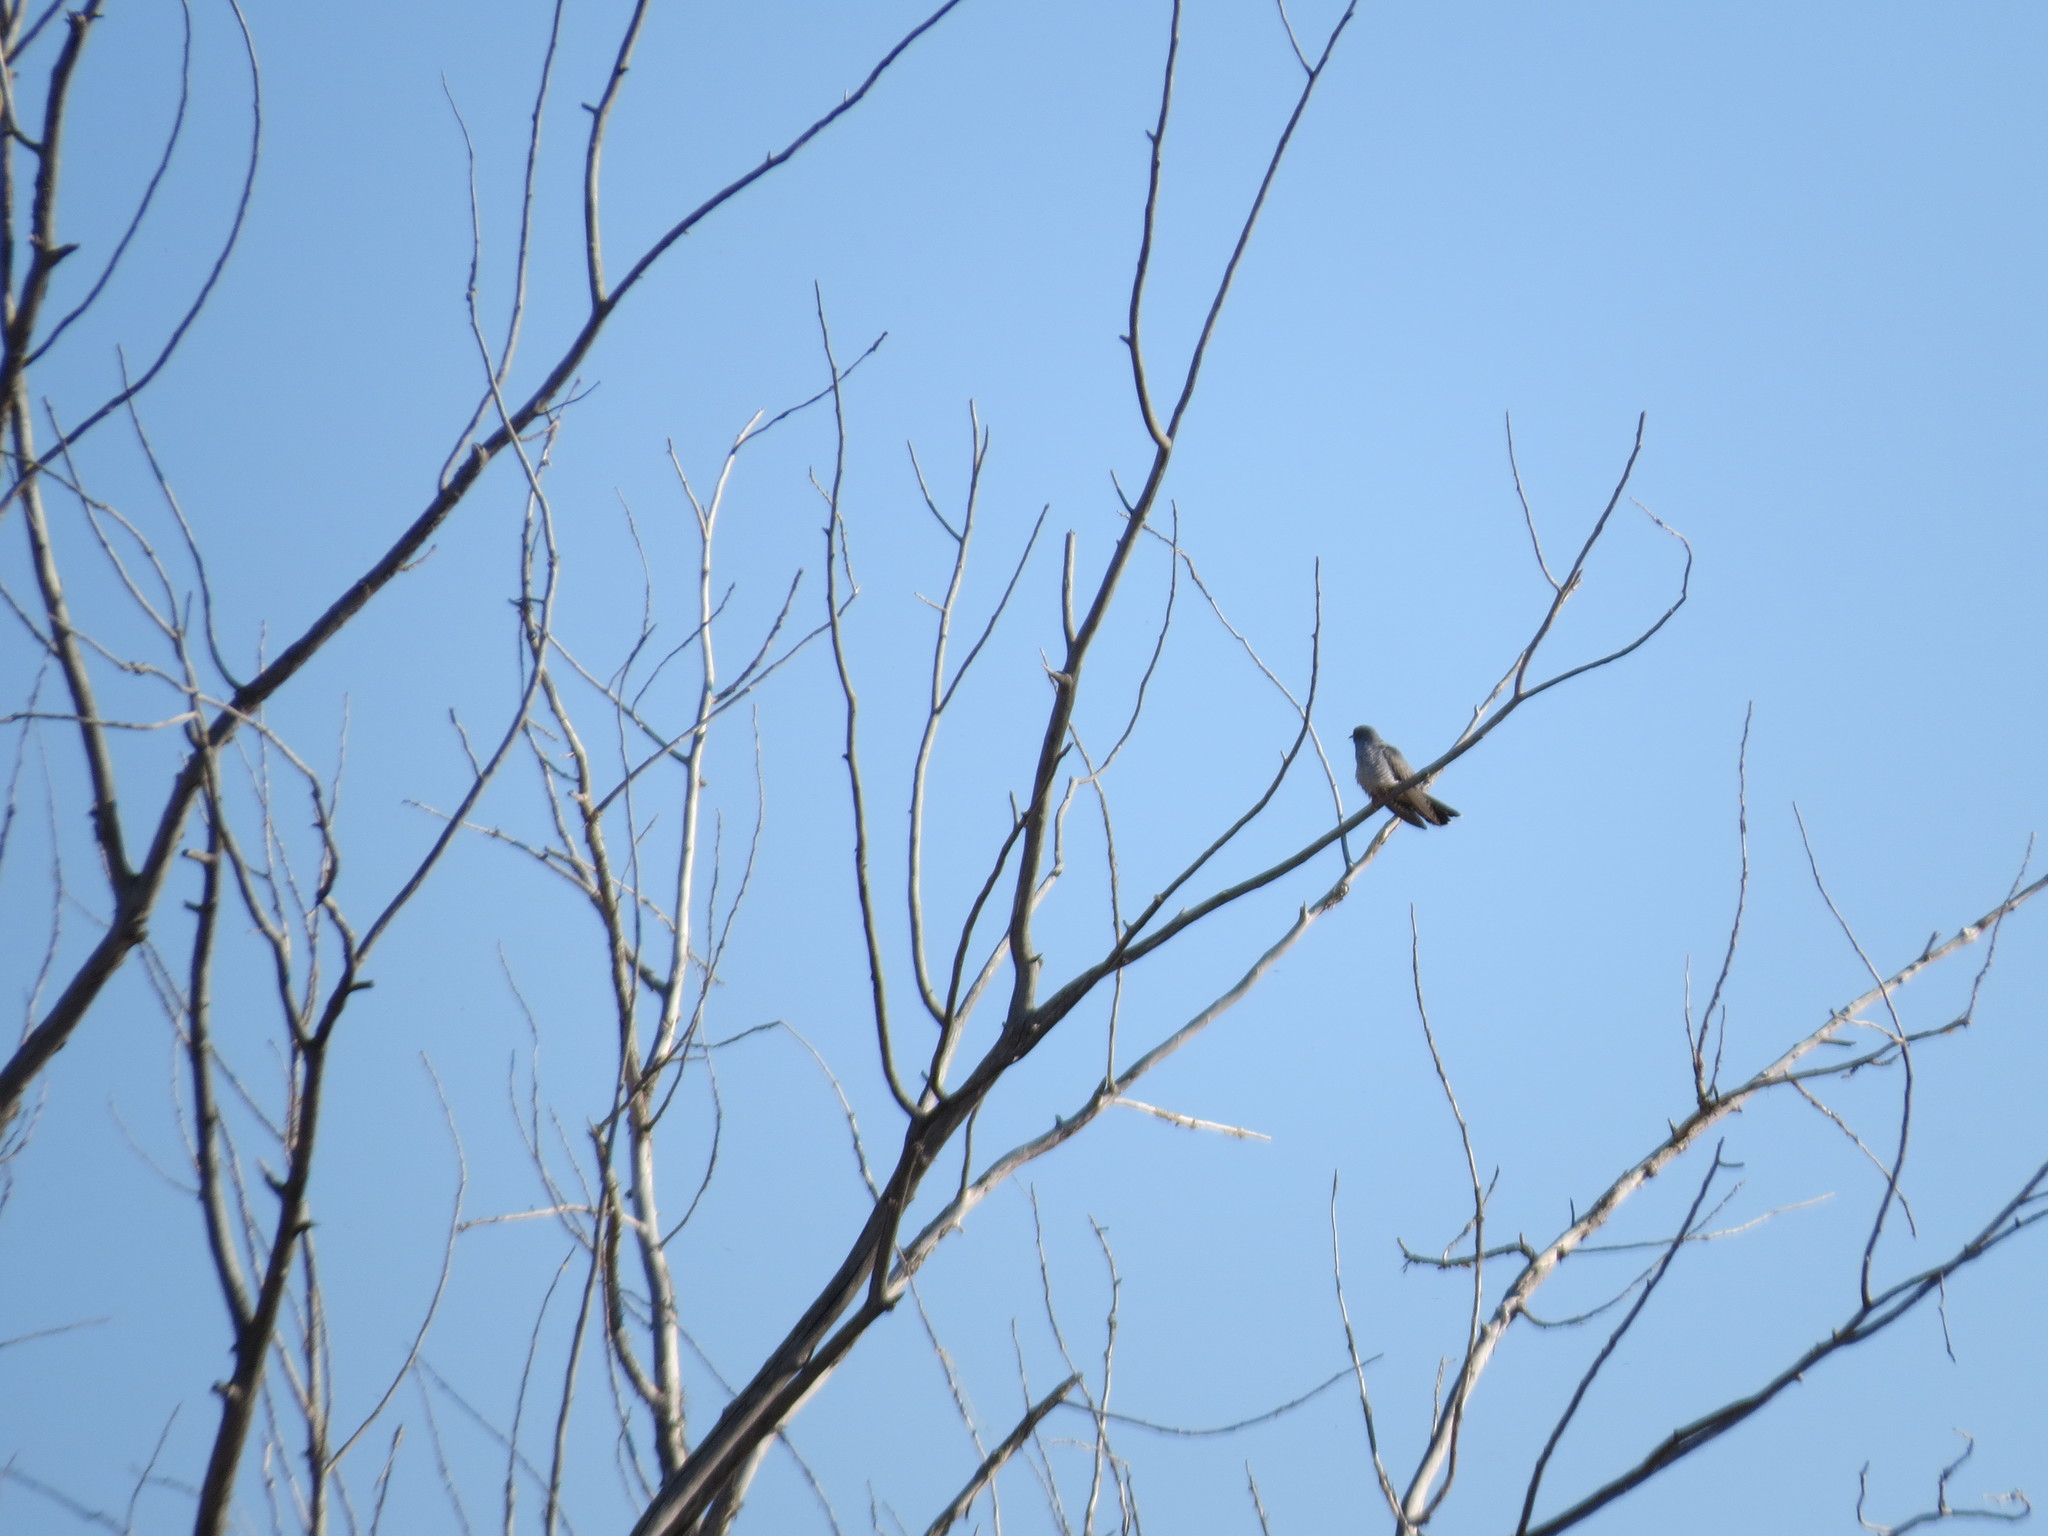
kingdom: Animalia
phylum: Chordata
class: Aves
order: Cuculiformes
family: Cuculidae
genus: Cuculus
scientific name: Cuculus canorus
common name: Common cuckoo
